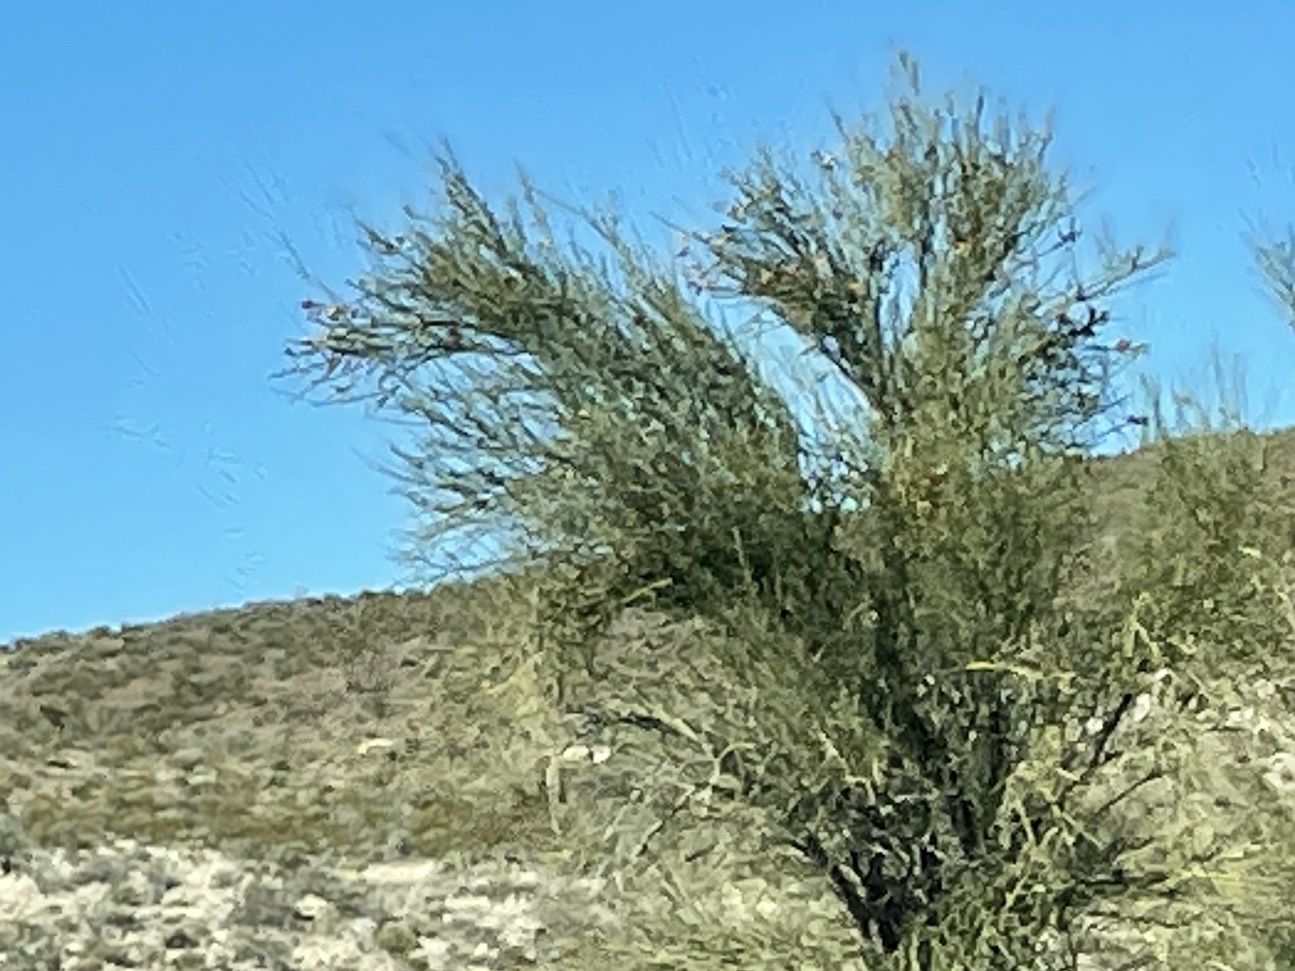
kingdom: Plantae
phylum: Tracheophyta
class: Magnoliopsida
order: Celastrales
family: Celastraceae
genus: Canotia
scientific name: Canotia holacantha
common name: Crucifixion thorns
